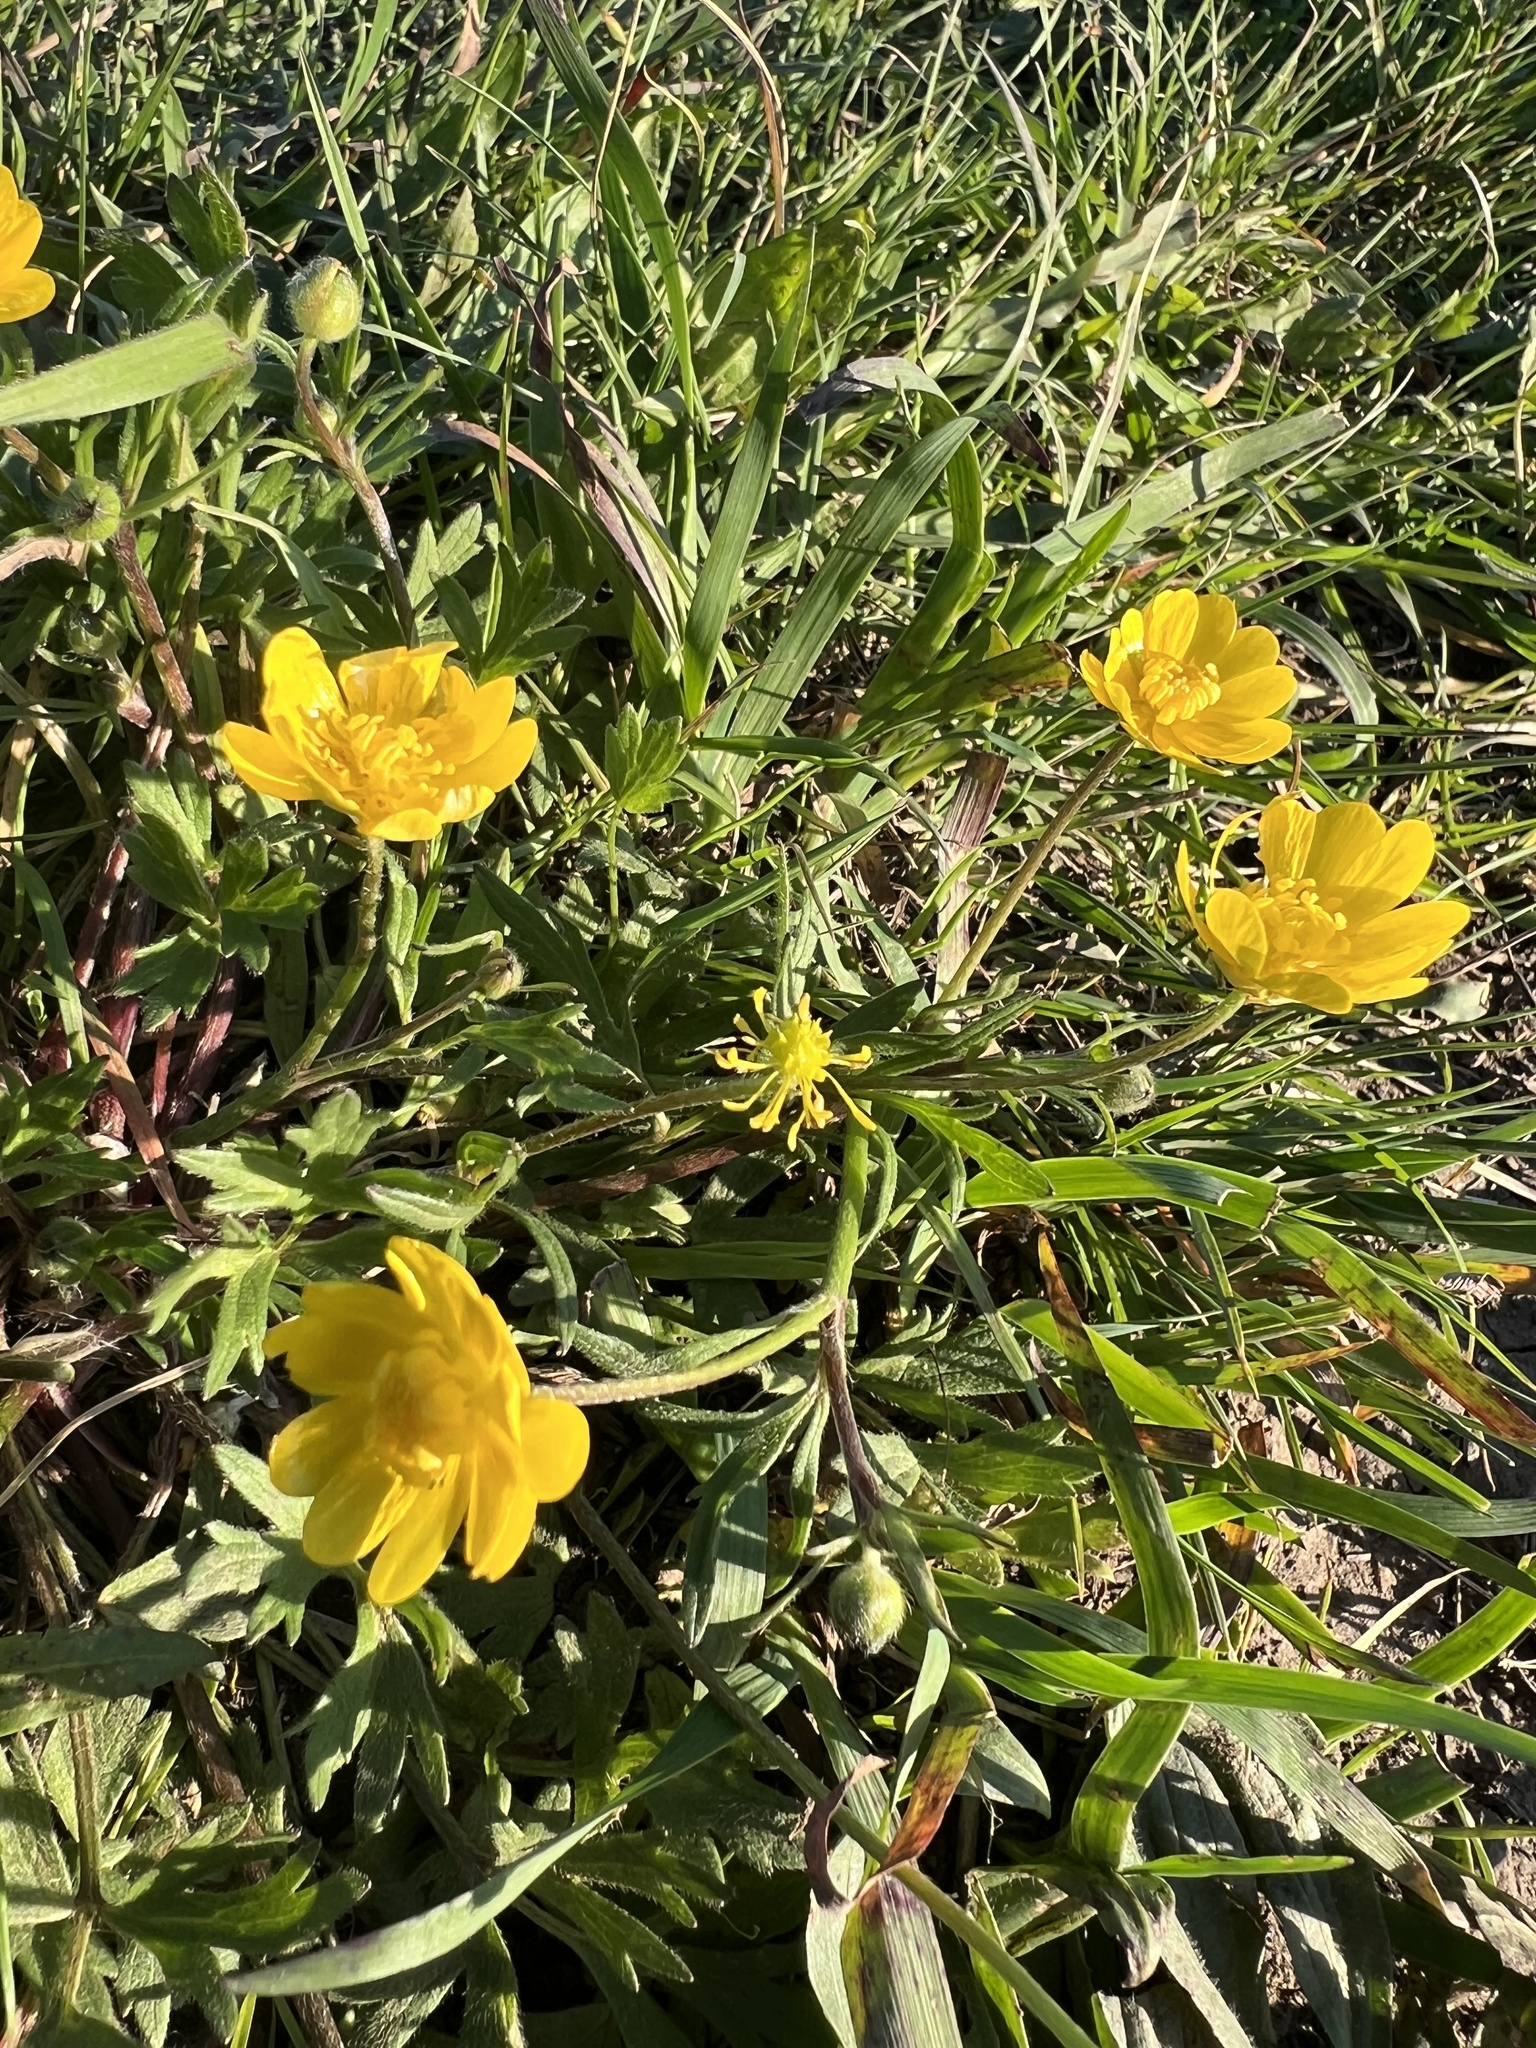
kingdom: Plantae
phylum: Tracheophyta
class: Magnoliopsida
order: Ranunculales
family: Ranunculaceae
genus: Ranunculus
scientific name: Ranunculus californicus
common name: California buttercup
